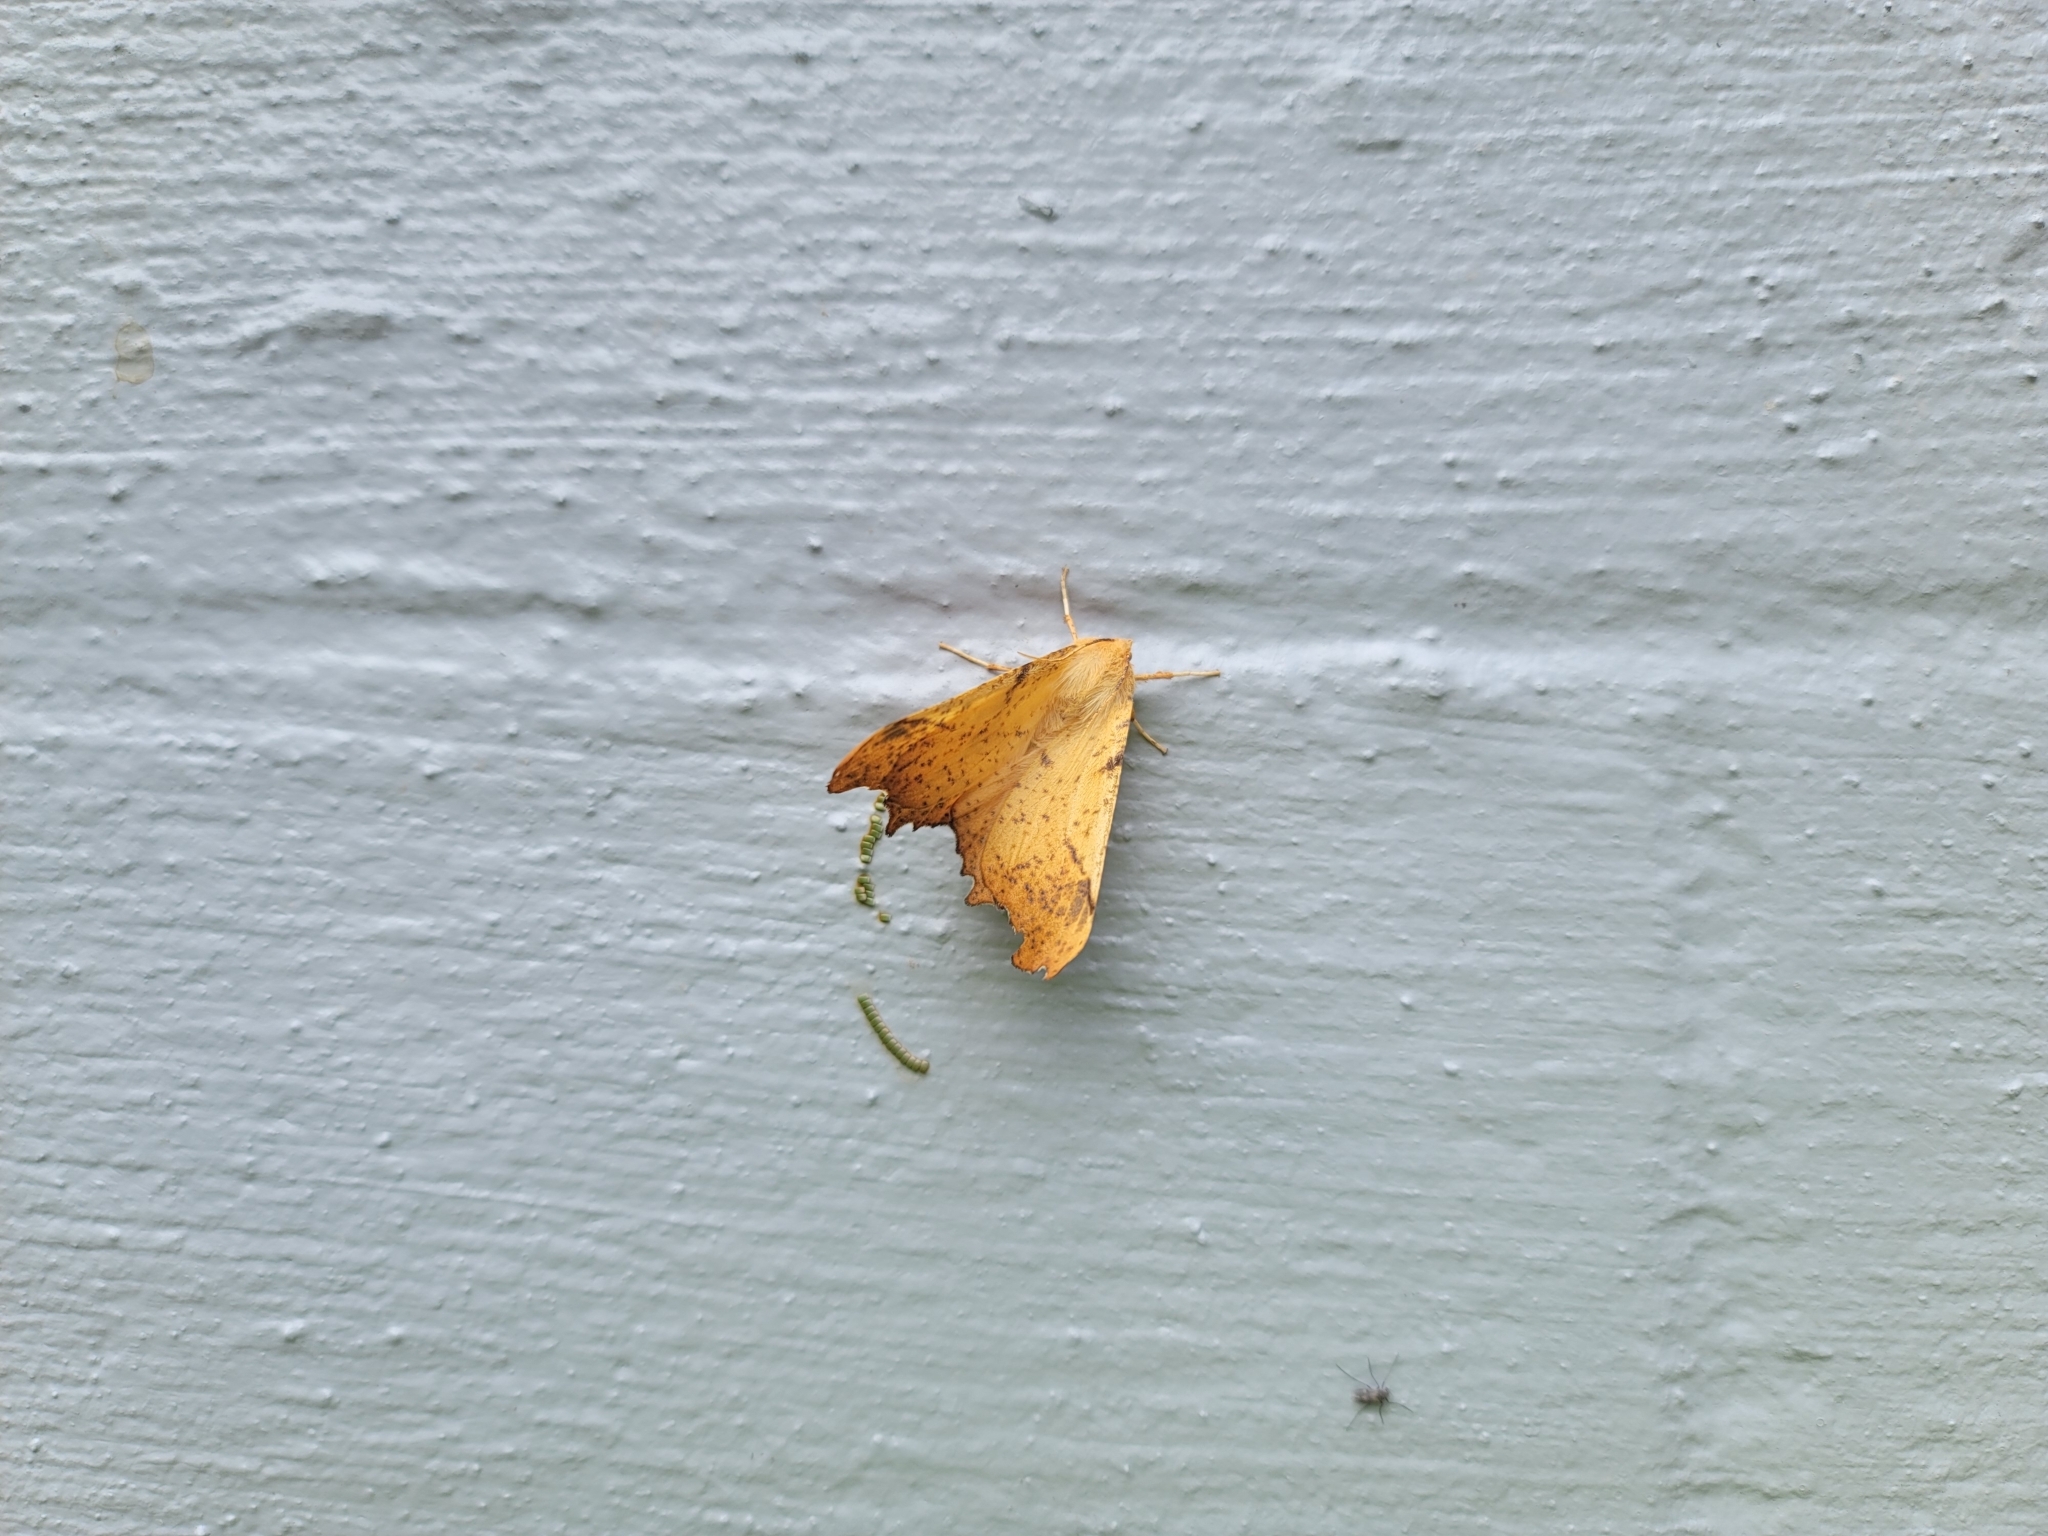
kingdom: Animalia
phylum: Arthropoda
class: Insecta
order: Lepidoptera
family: Geometridae
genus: Ennomos
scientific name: Ennomos magnaria
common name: Maple spanworm
